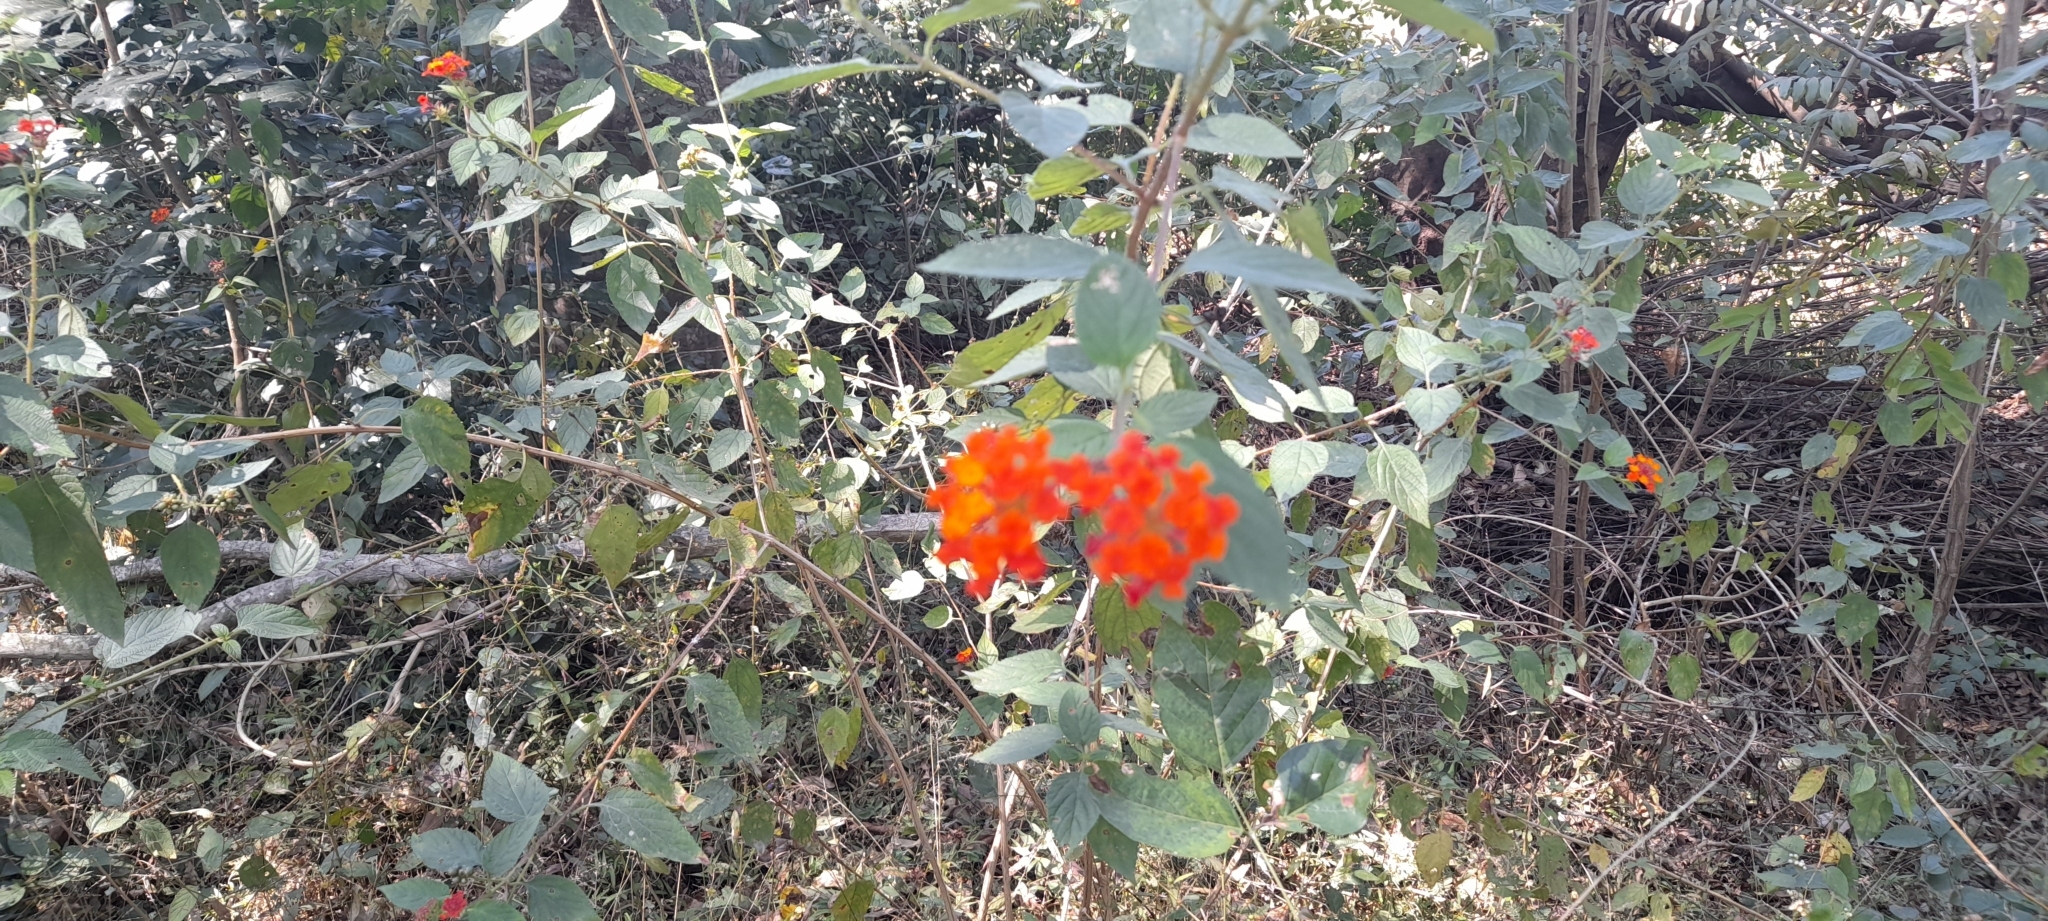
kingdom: Plantae
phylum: Tracheophyta
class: Magnoliopsida
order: Lamiales
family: Verbenaceae
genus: Lantana
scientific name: Lantana camara
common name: Lantana
